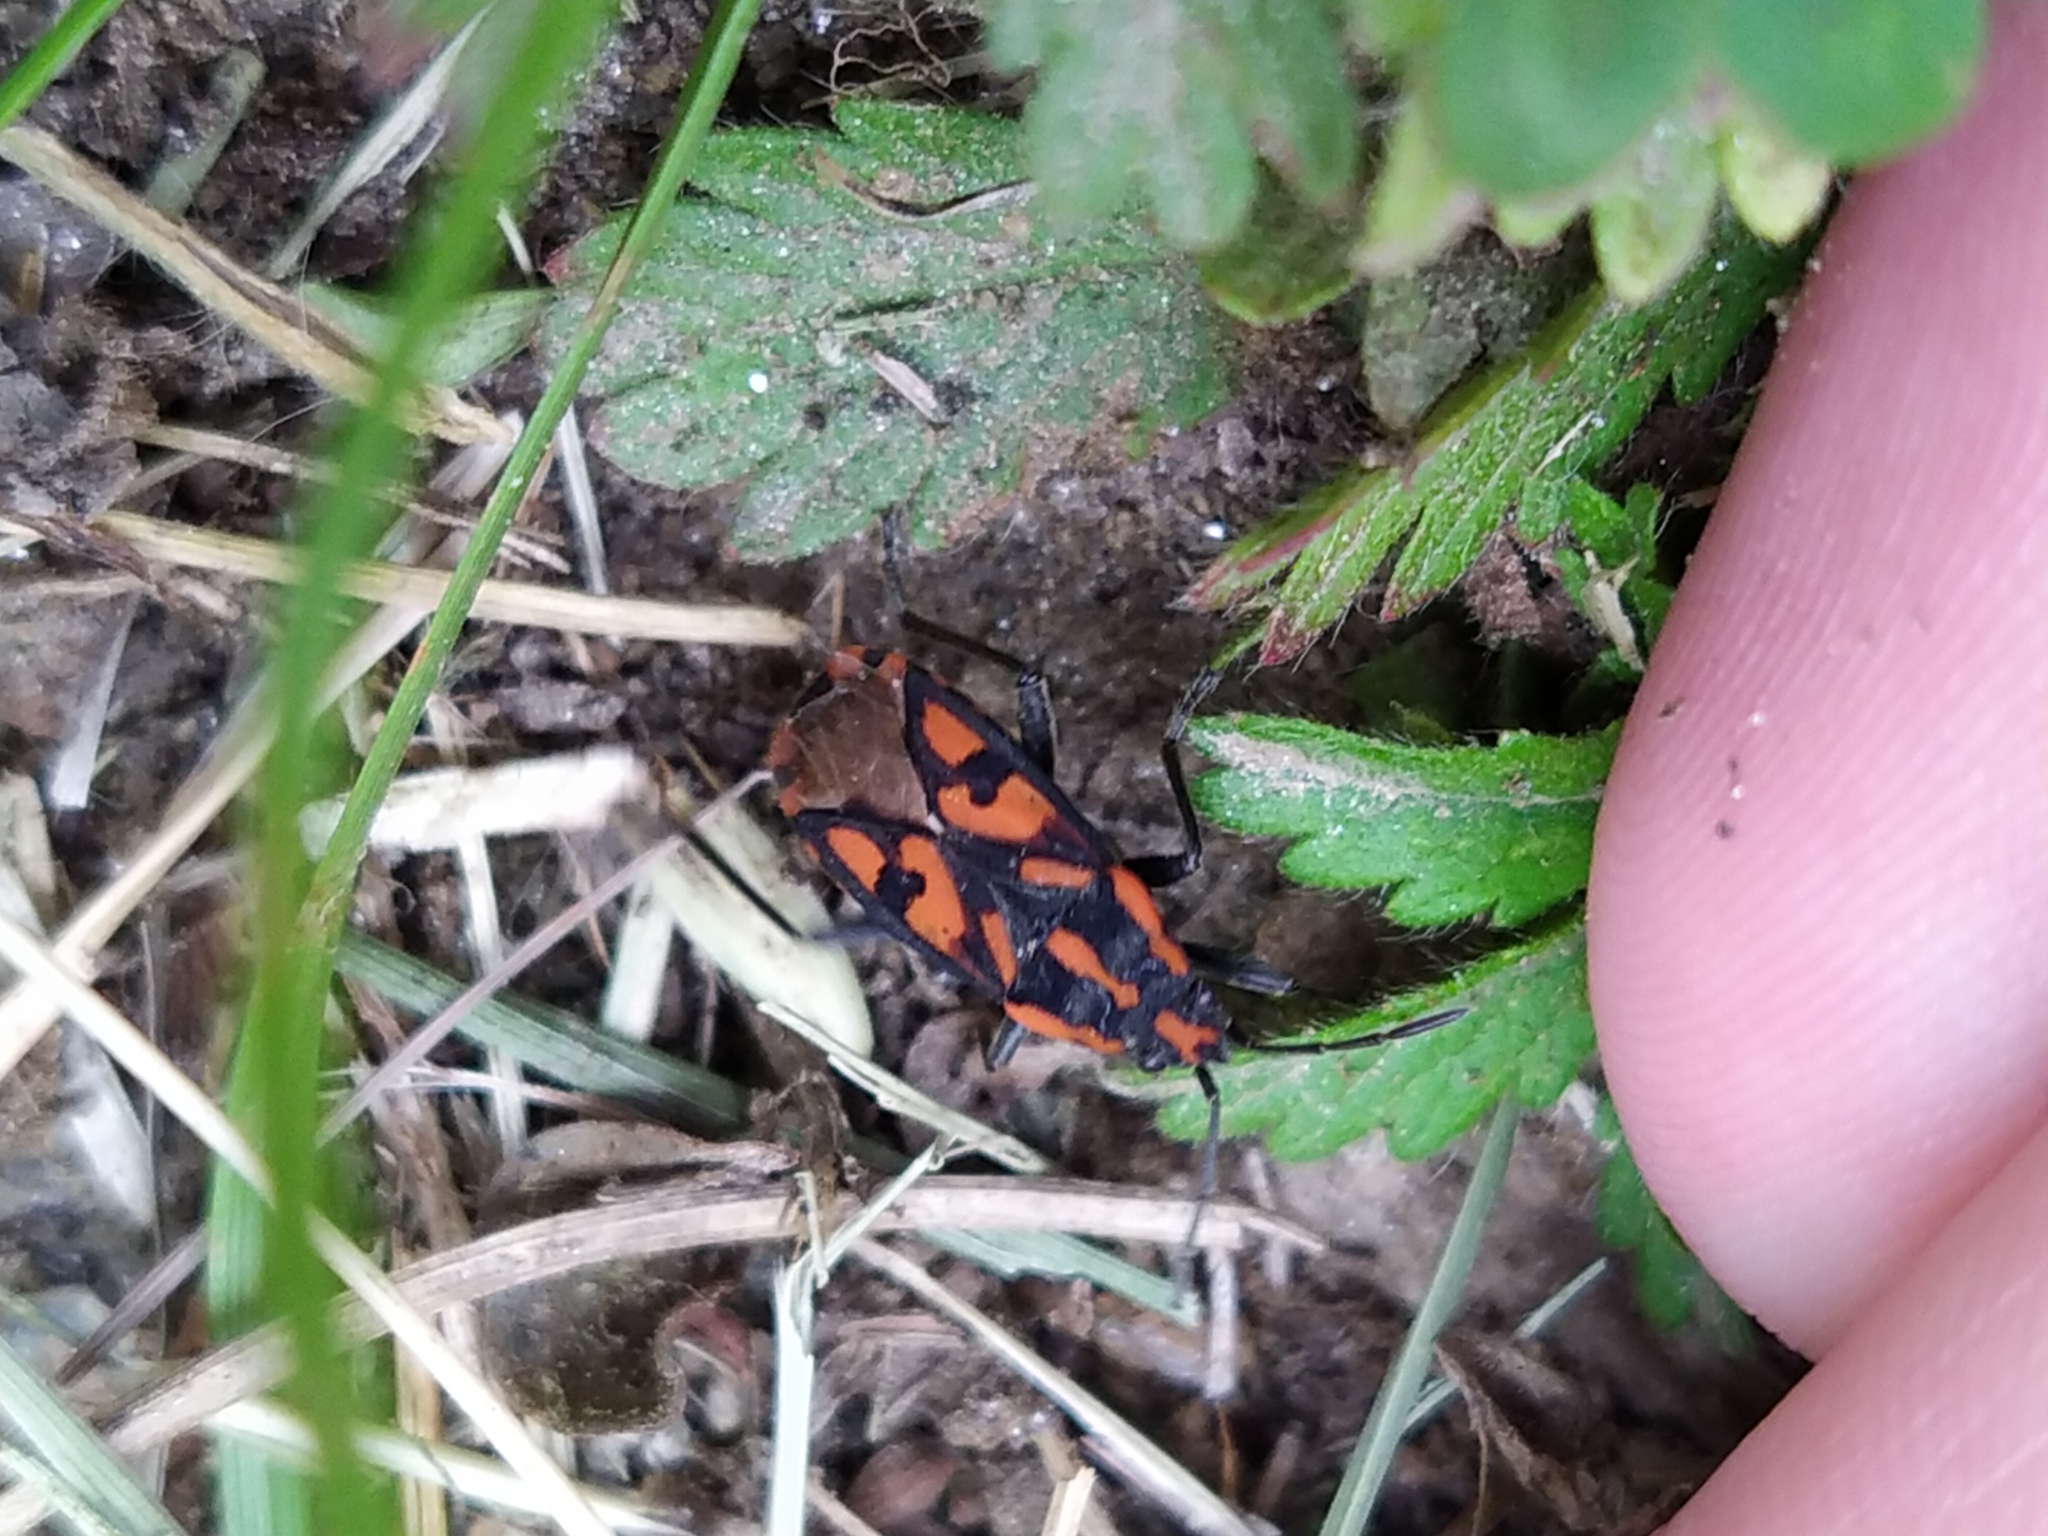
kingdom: Animalia
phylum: Arthropoda
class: Insecta
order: Hemiptera
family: Lygaeidae
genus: Spilostethus
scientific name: Spilostethus saxatilis
